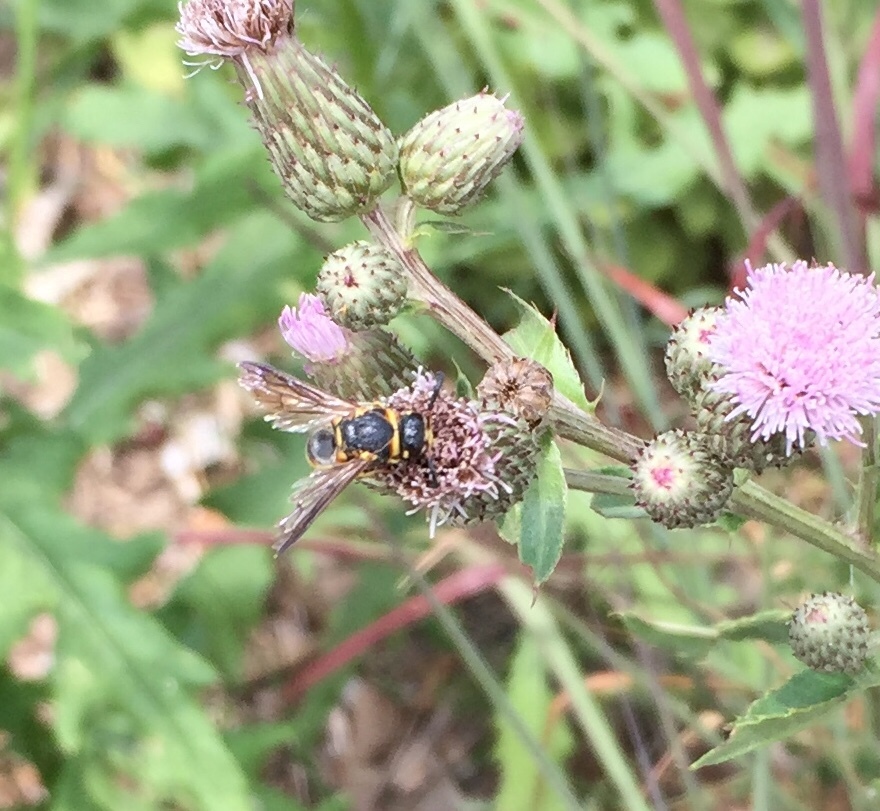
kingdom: Animalia
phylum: Arthropoda
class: Insecta
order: Hymenoptera
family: Eumenidae
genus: Euodynerus
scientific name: Euodynerus hidalgo
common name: Wasp
